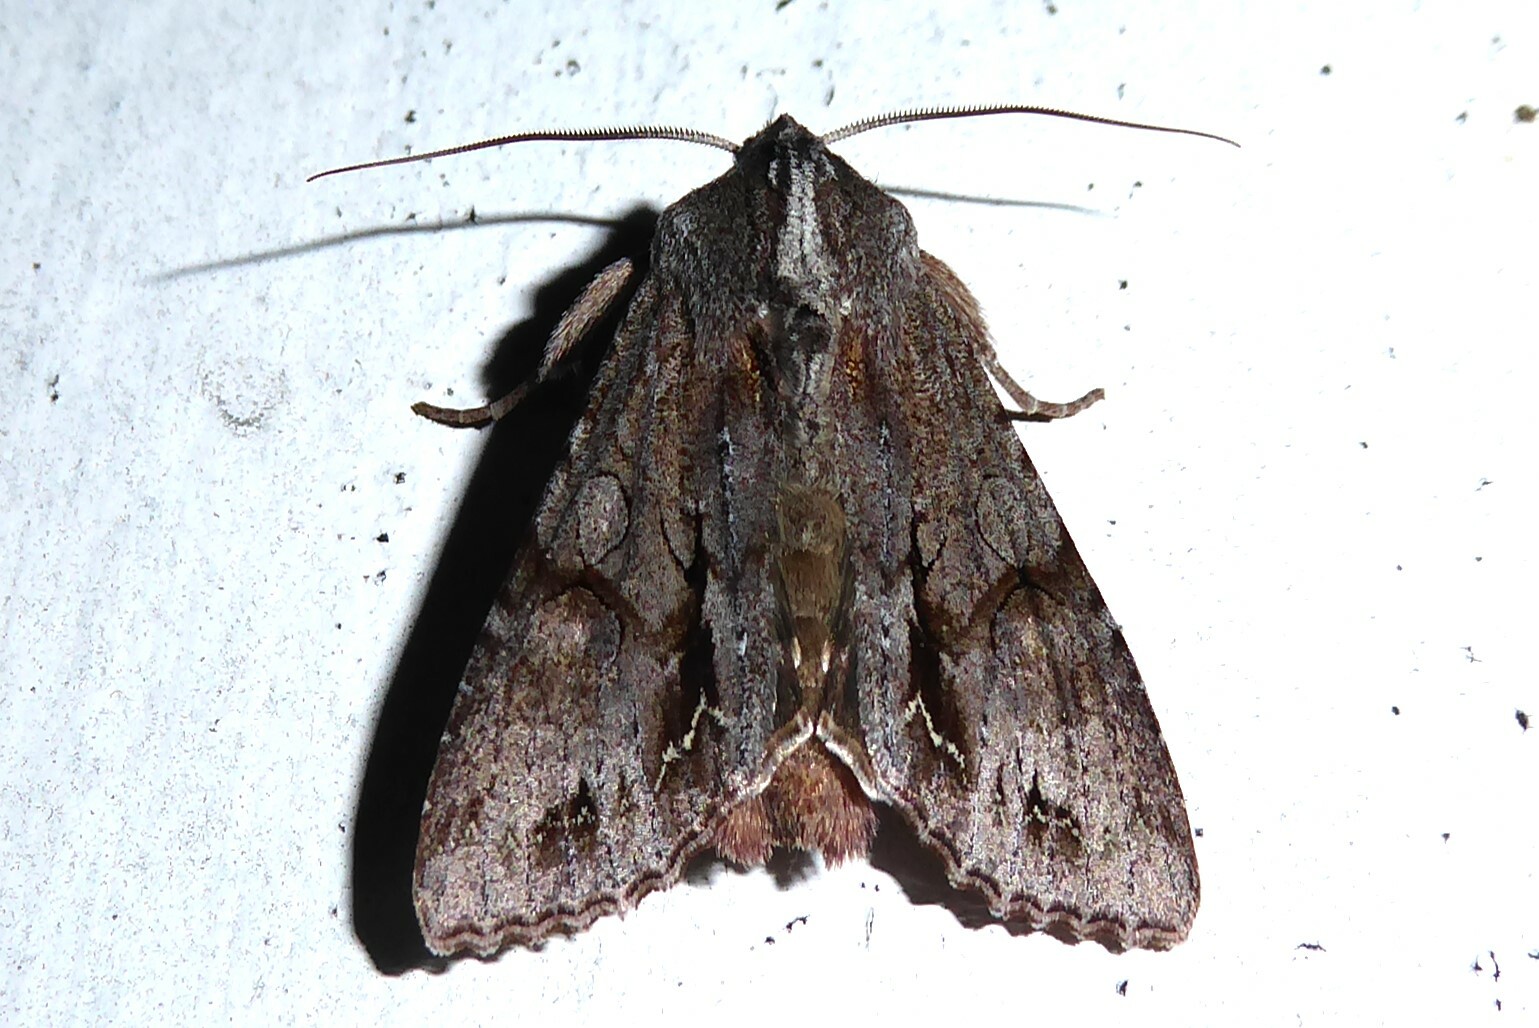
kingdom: Animalia
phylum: Arthropoda
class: Insecta
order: Lepidoptera
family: Noctuidae
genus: Ichneutica
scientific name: Ichneutica
